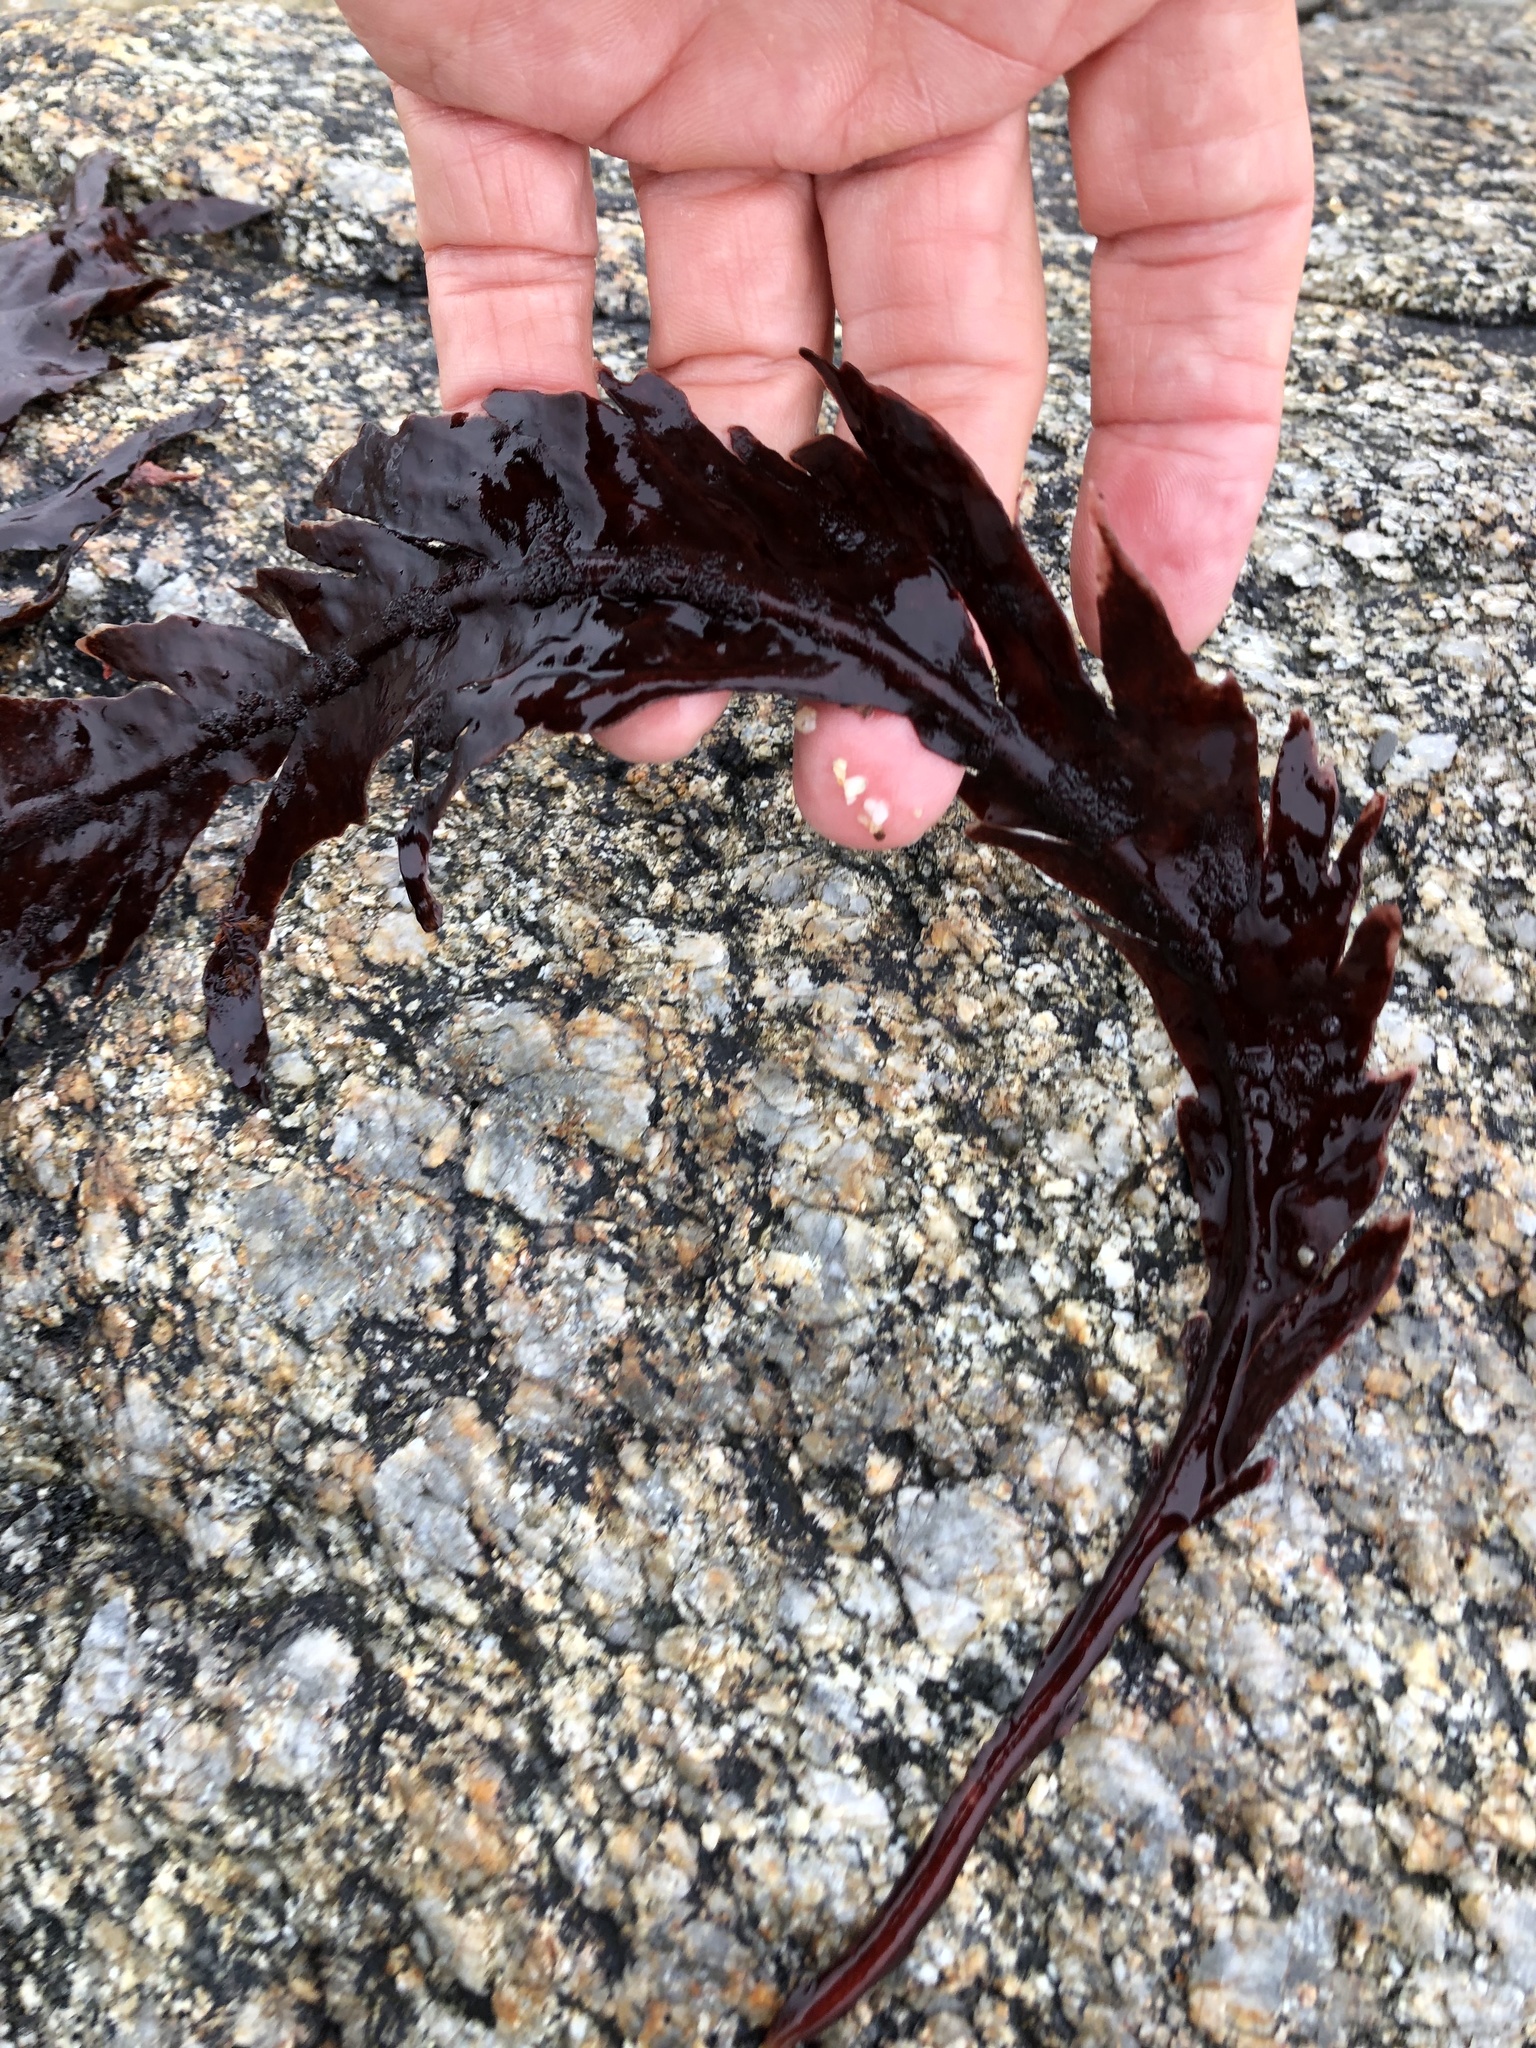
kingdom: Plantae
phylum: Rhodophyta
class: Florideophyceae
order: Gigartinales
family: Kallymeniaceae
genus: Erythrophyllum
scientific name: Erythrophyllum delesserioides
